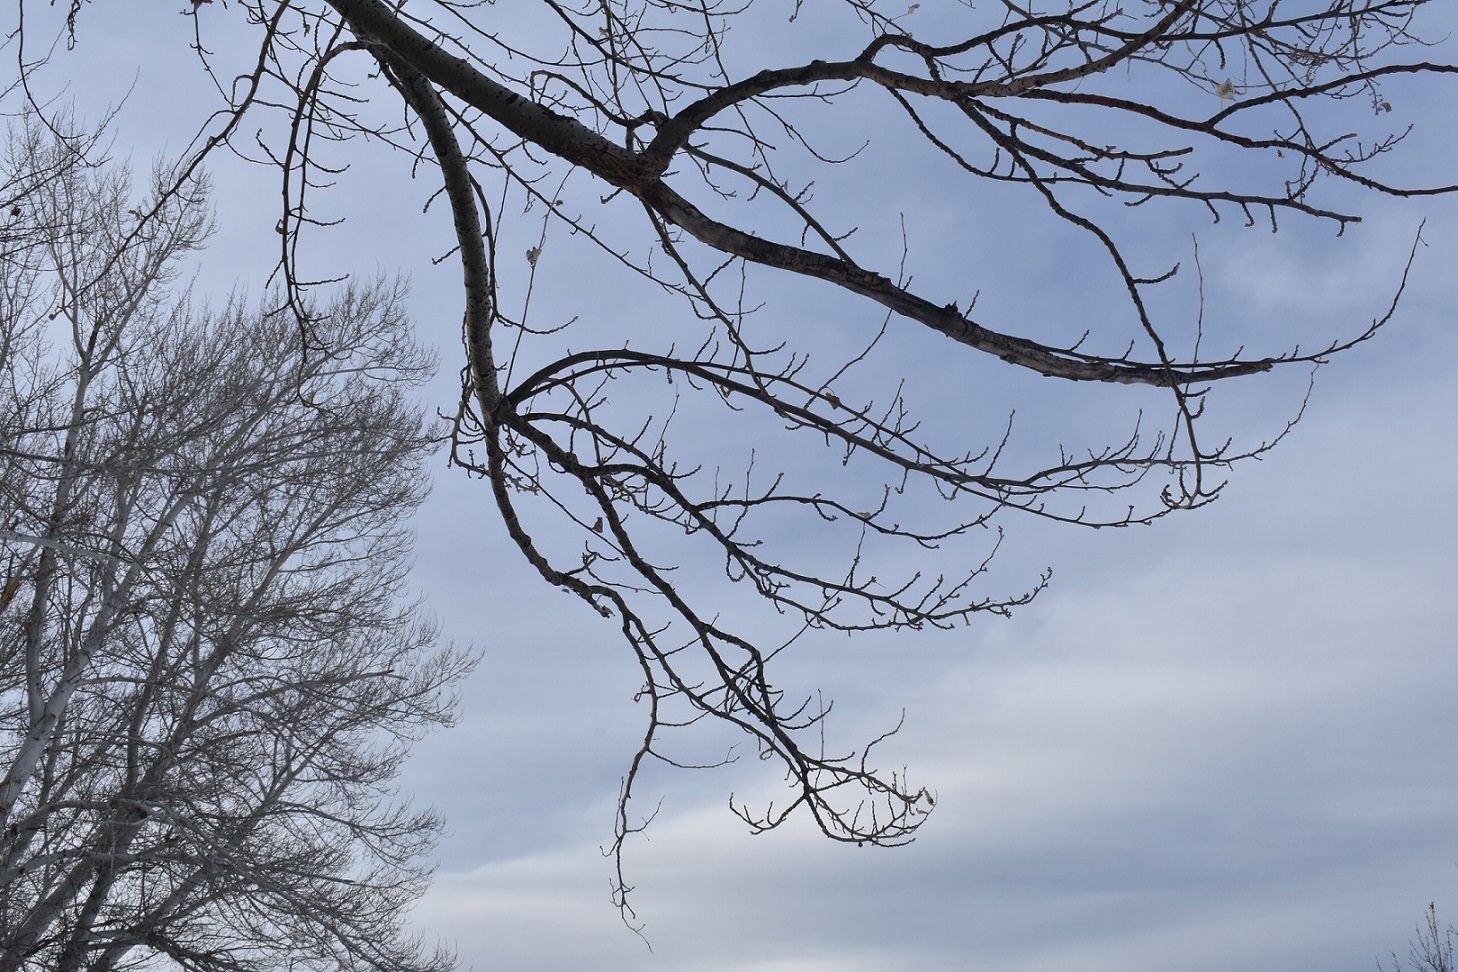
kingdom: Plantae
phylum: Tracheophyta
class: Magnoliopsida
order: Malpighiales
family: Salicaceae
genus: Populus
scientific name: Populus alba
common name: White poplar
